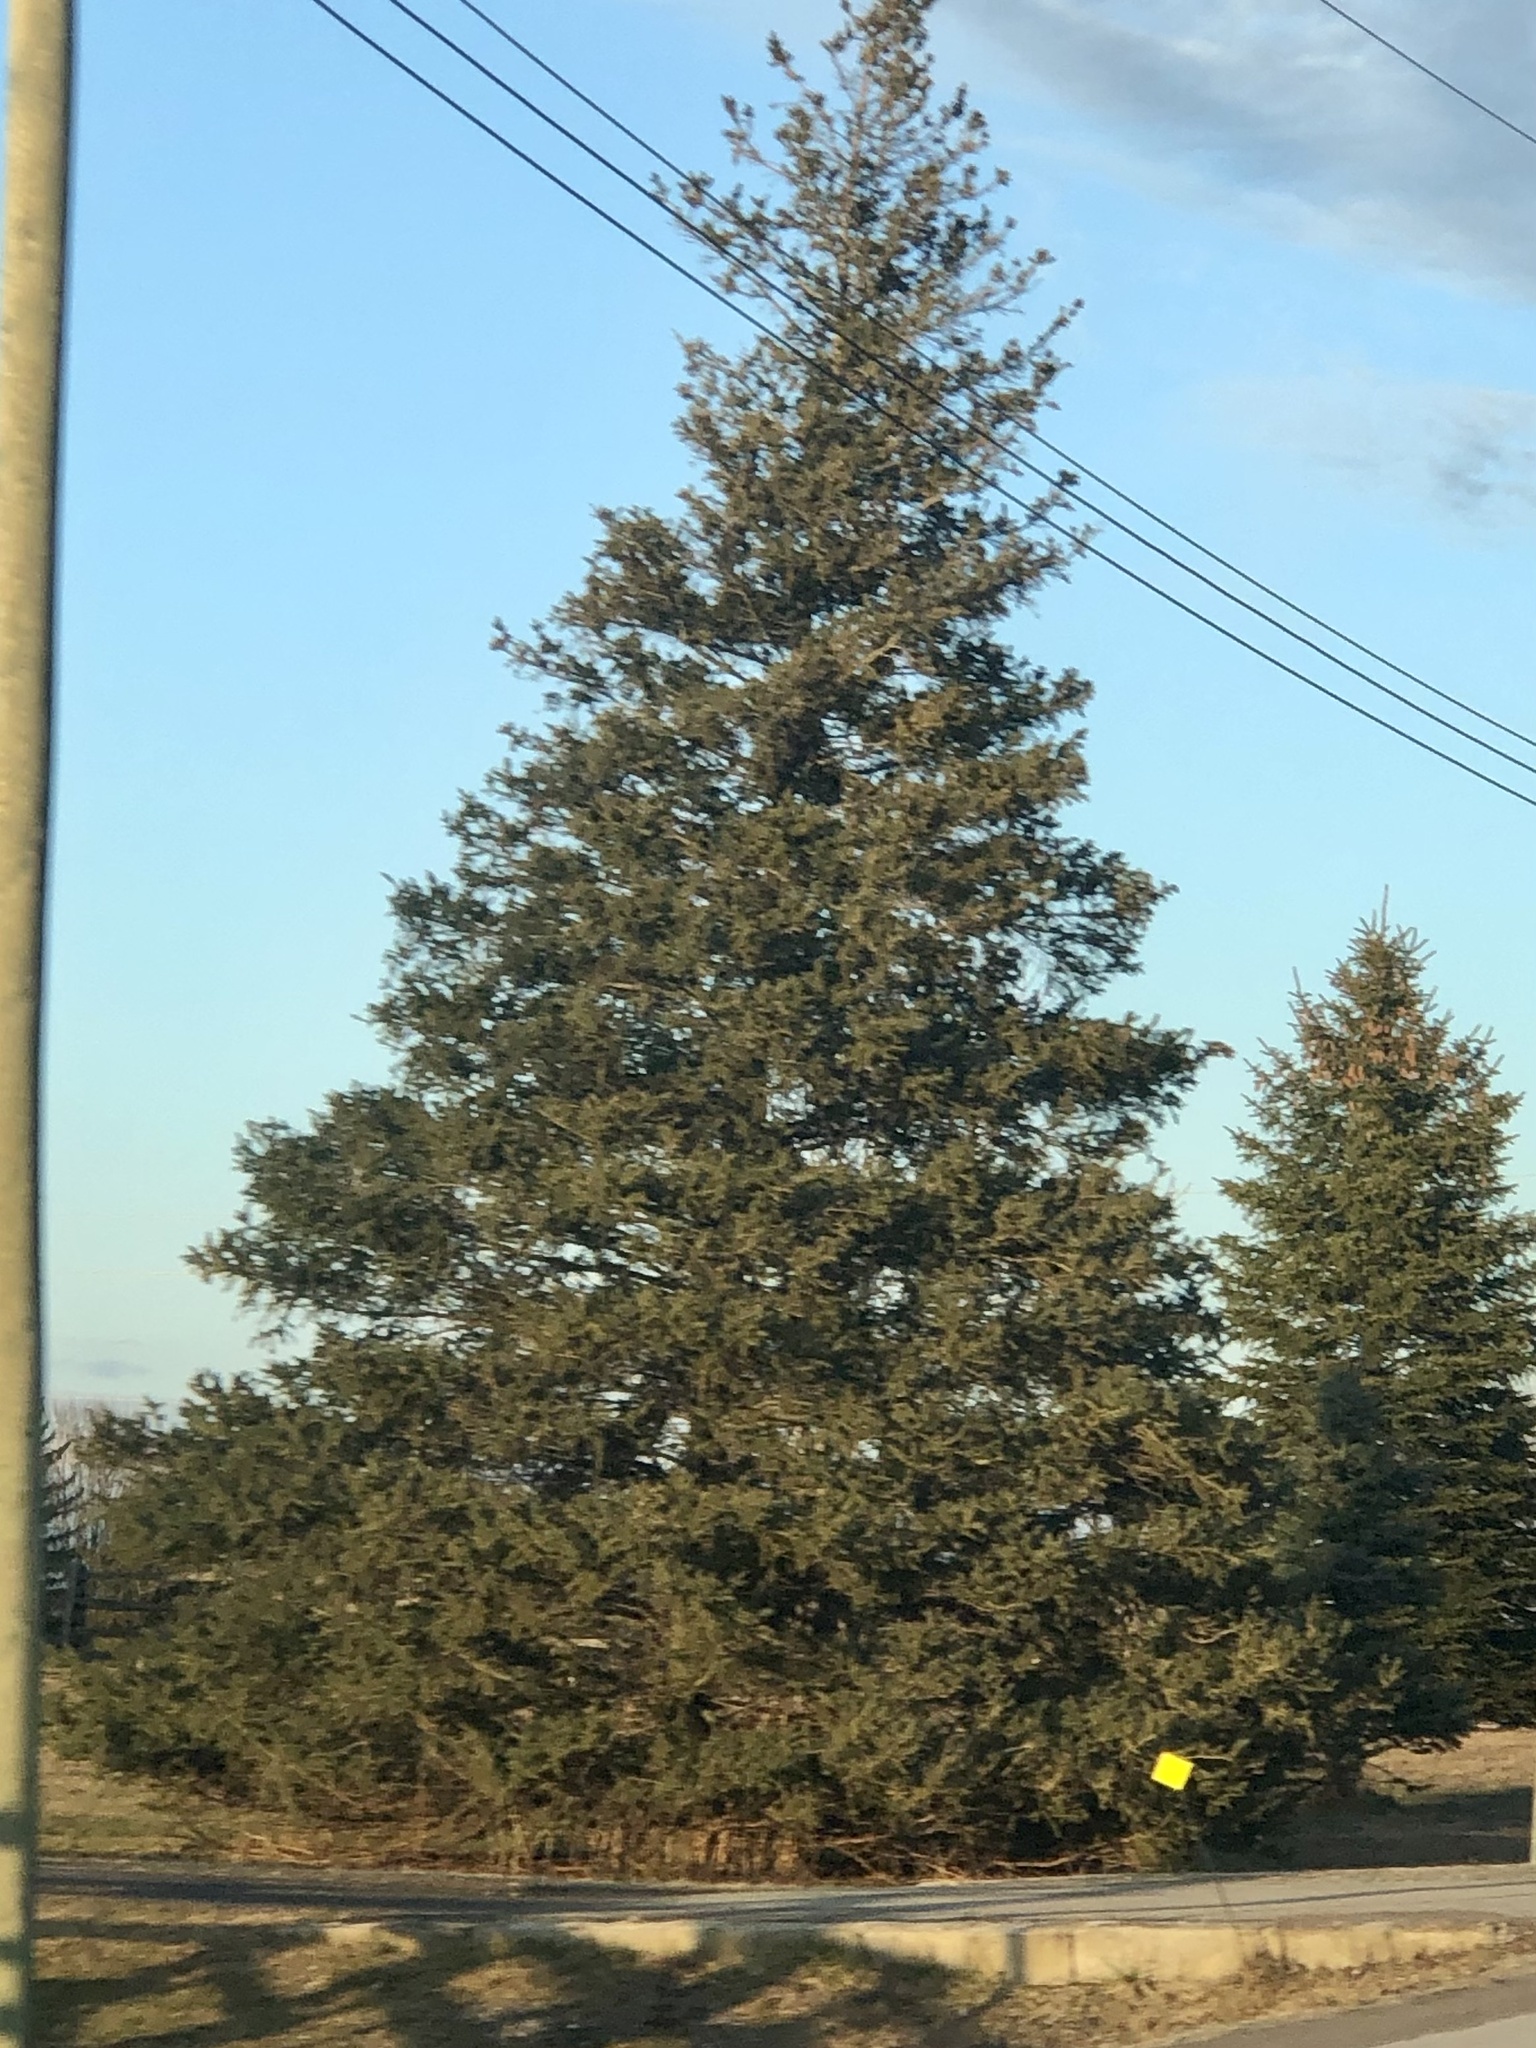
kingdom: Plantae
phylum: Tracheophyta
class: Pinopsida
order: Pinales
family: Pinaceae
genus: Picea
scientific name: Picea glauca
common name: White spruce
